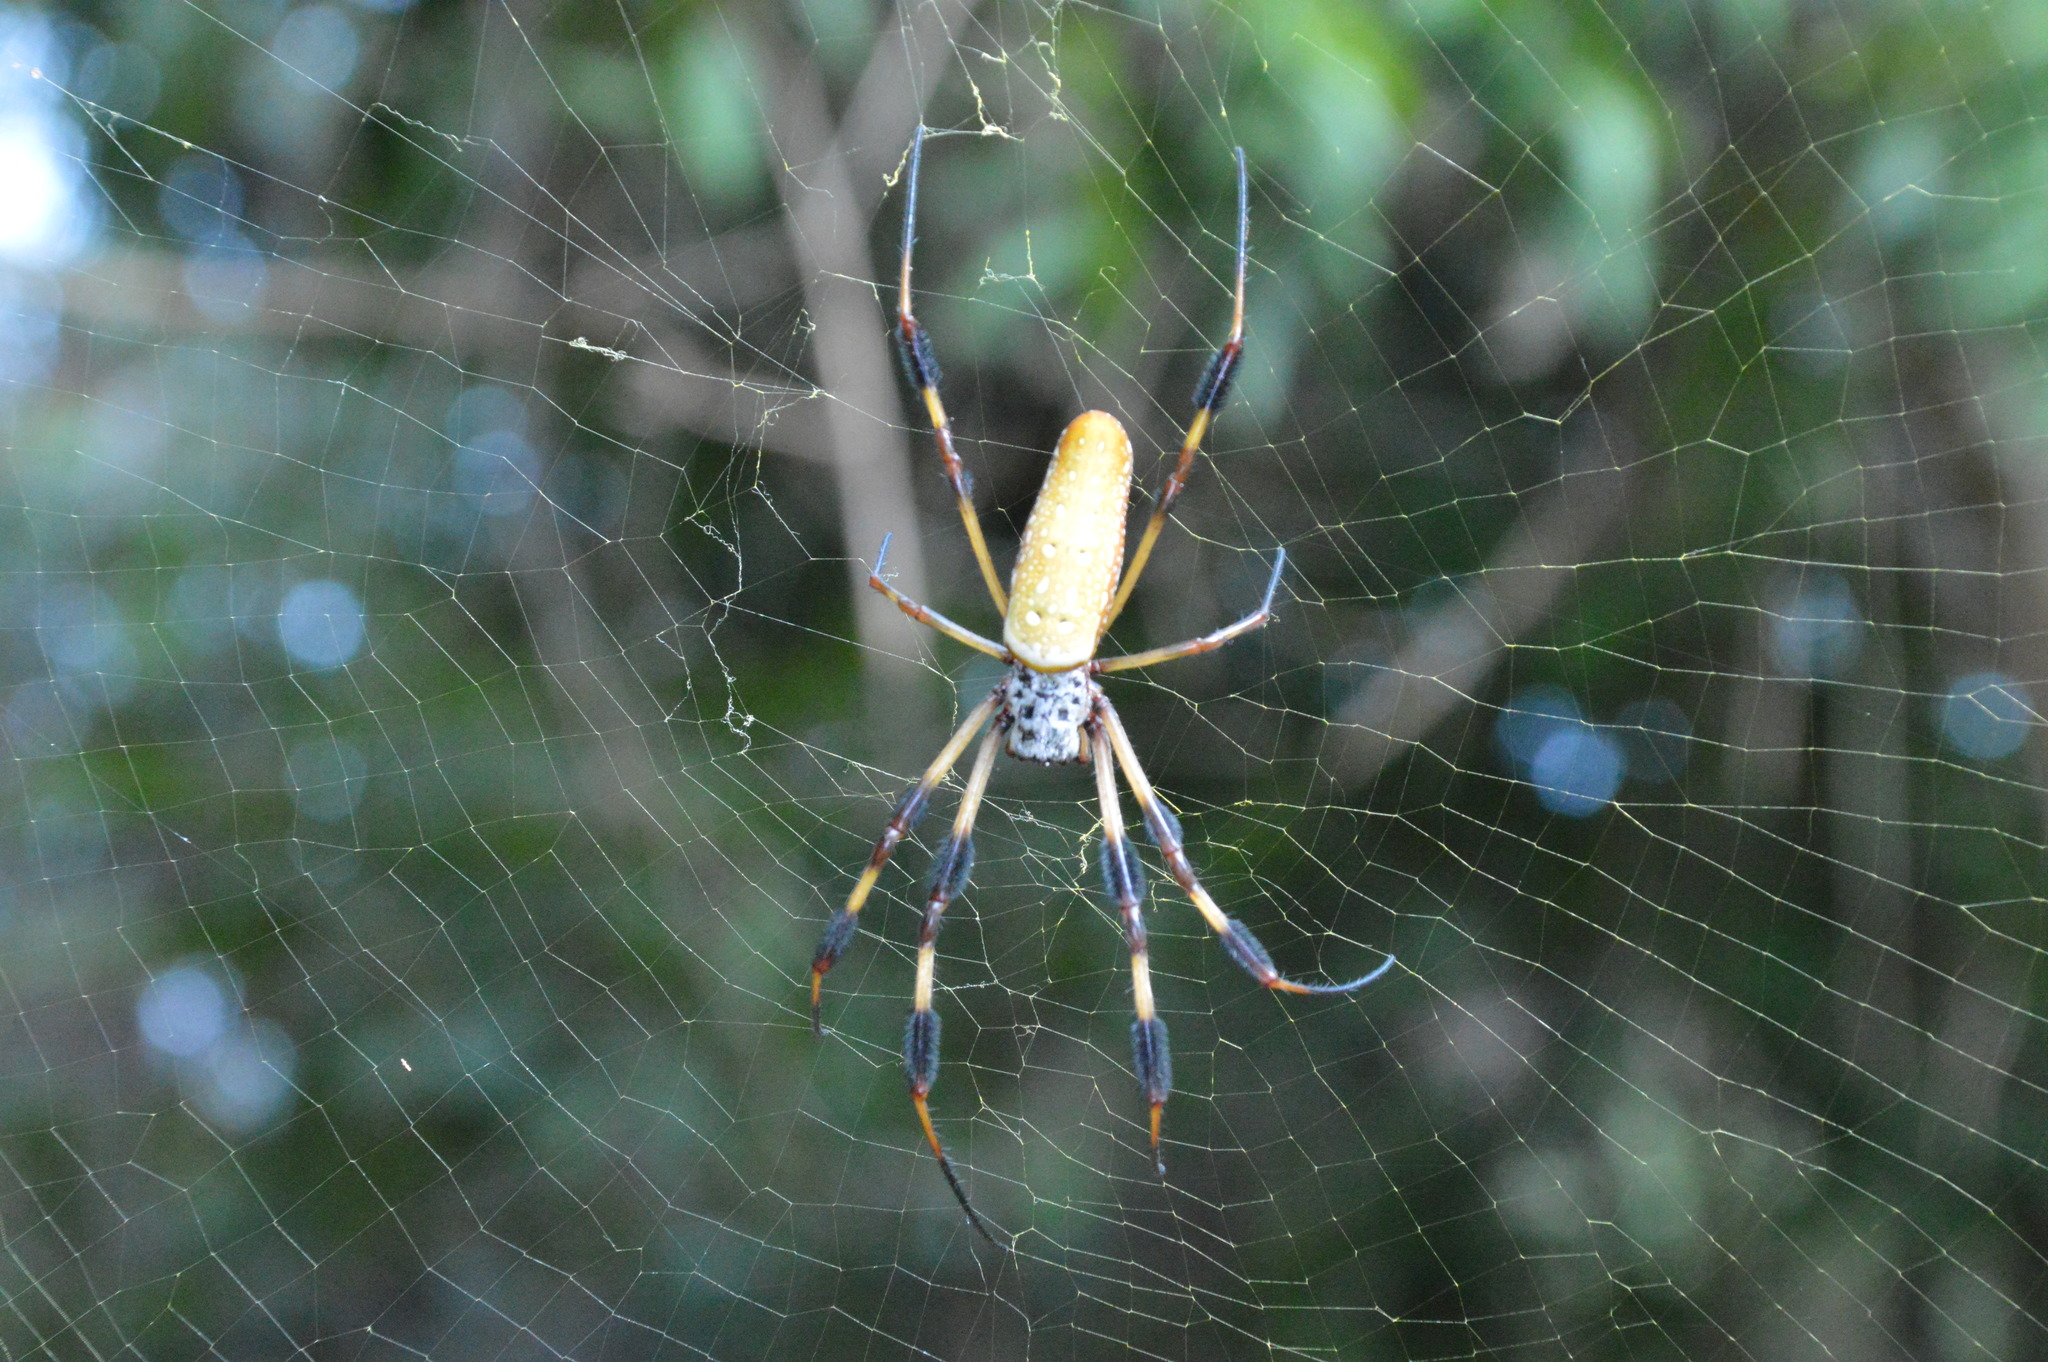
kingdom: Animalia
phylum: Arthropoda
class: Arachnida
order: Araneae
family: Araneidae
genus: Trichonephila
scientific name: Trichonephila clavipes
